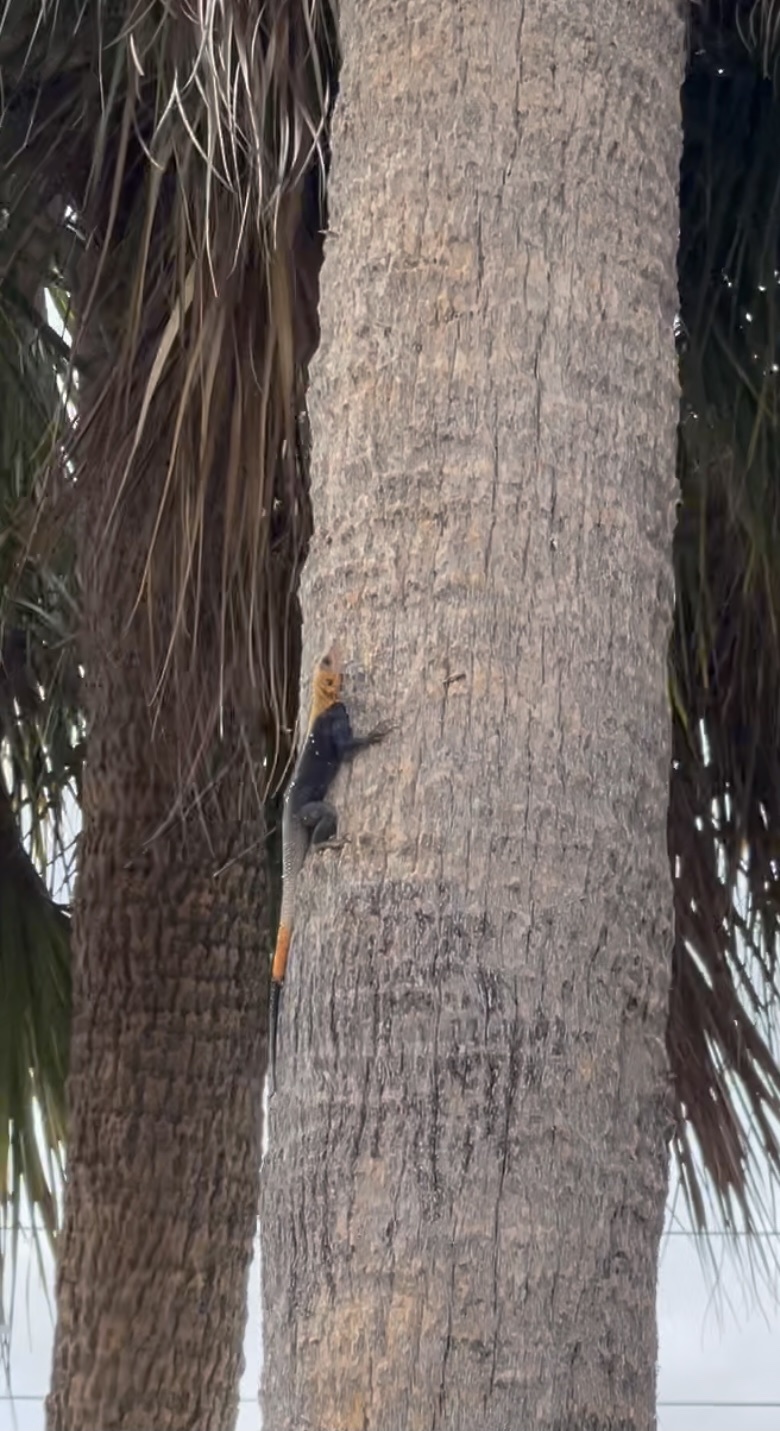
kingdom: Animalia
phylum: Chordata
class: Squamata
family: Agamidae
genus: Agama
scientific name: Agama picticauda
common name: Red-headed agama
